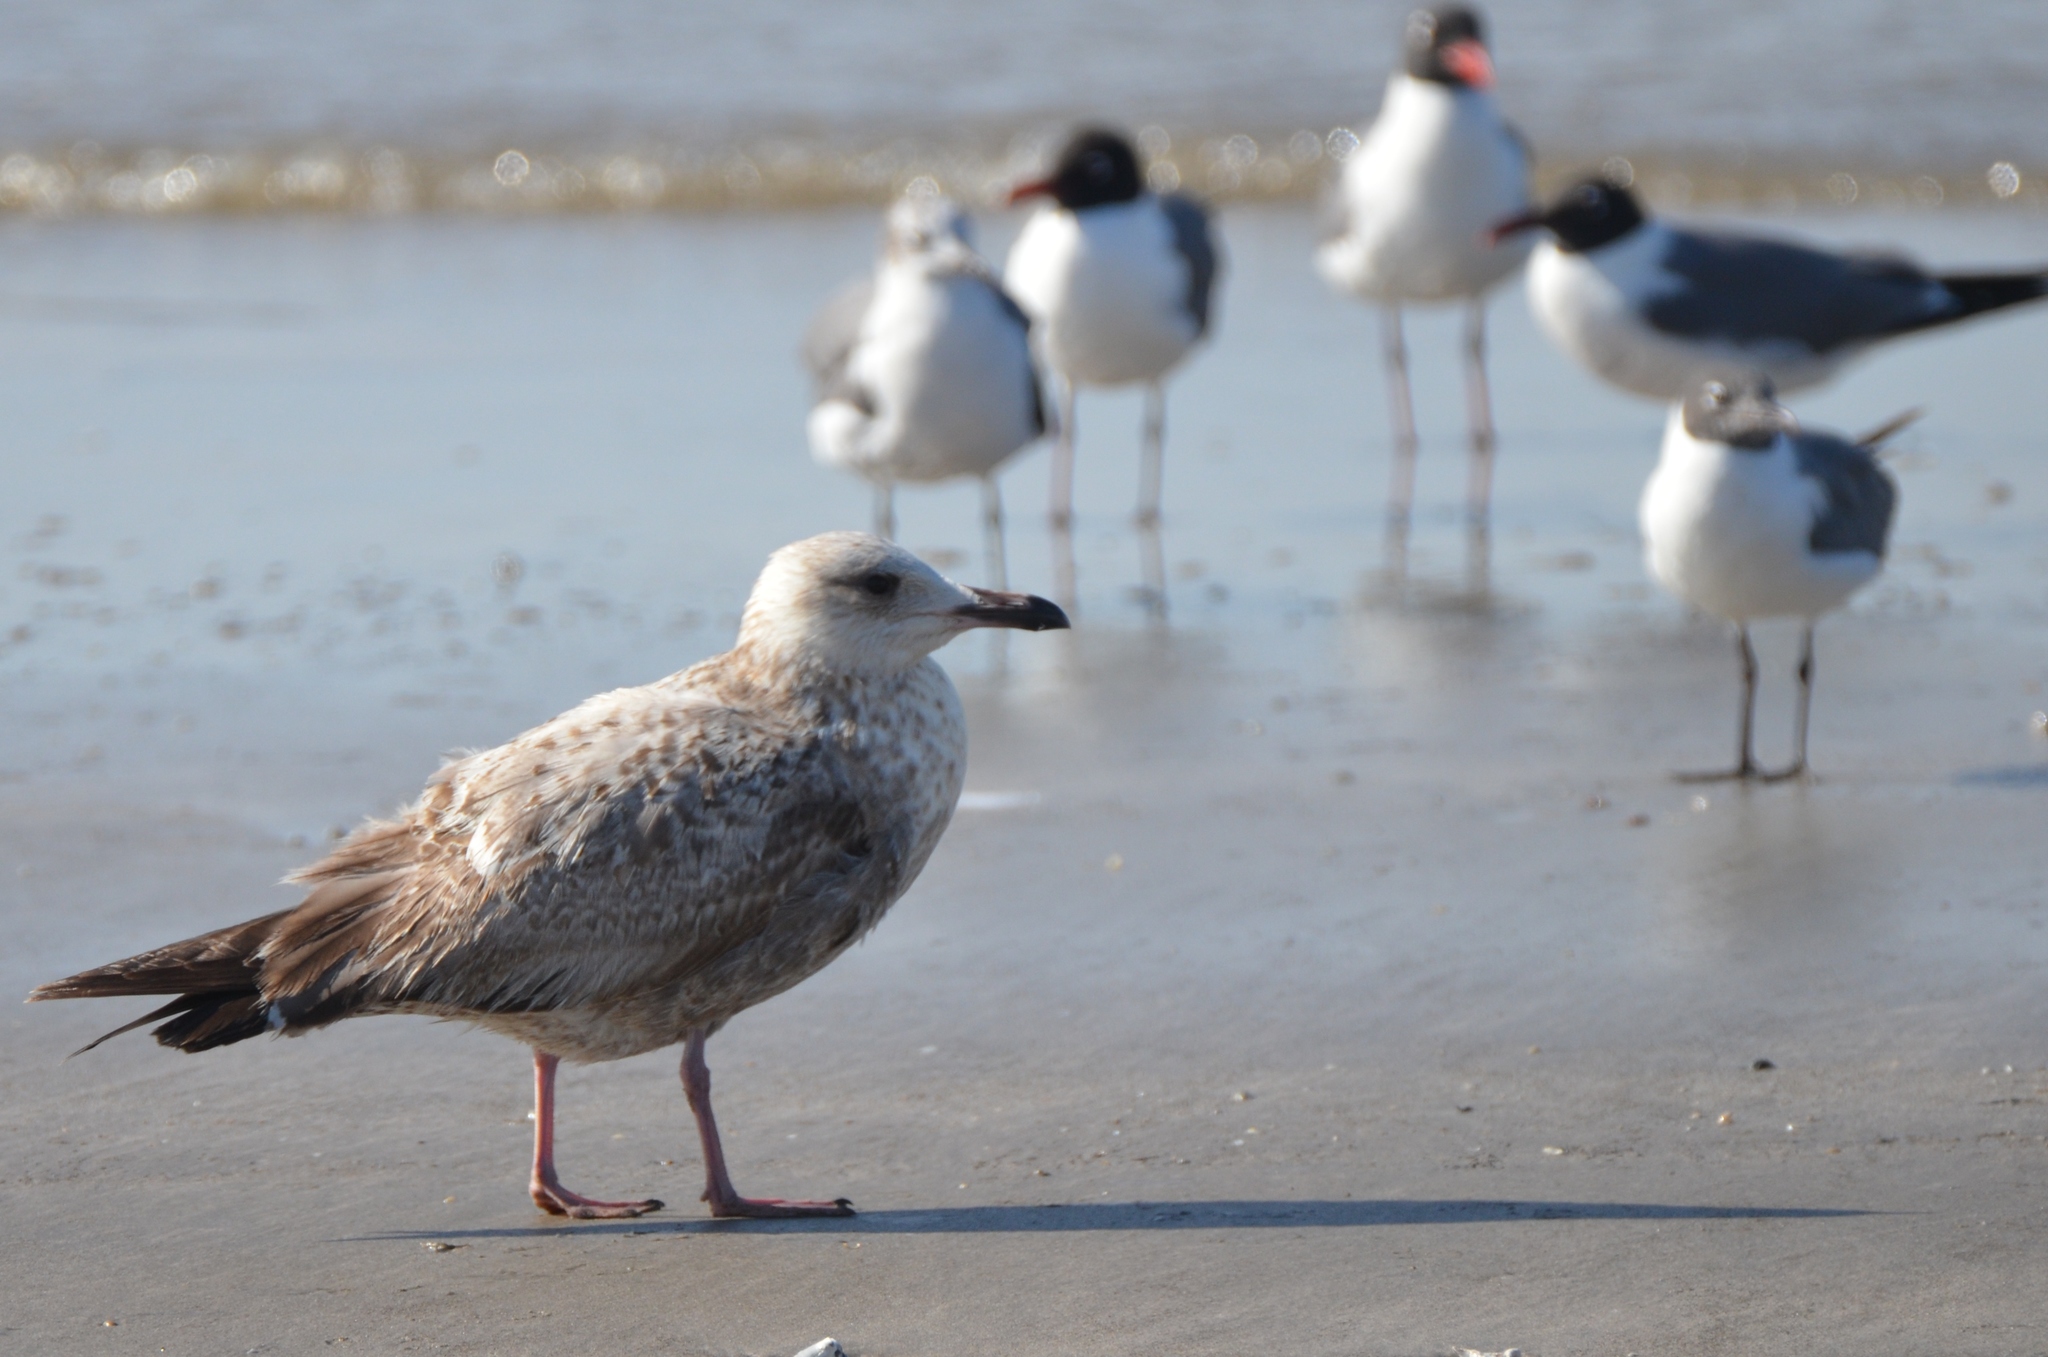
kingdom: Animalia
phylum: Chordata
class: Aves
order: Charadriiformes
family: Laridae
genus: Larus
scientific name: Larus argentatus
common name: Herring gull
